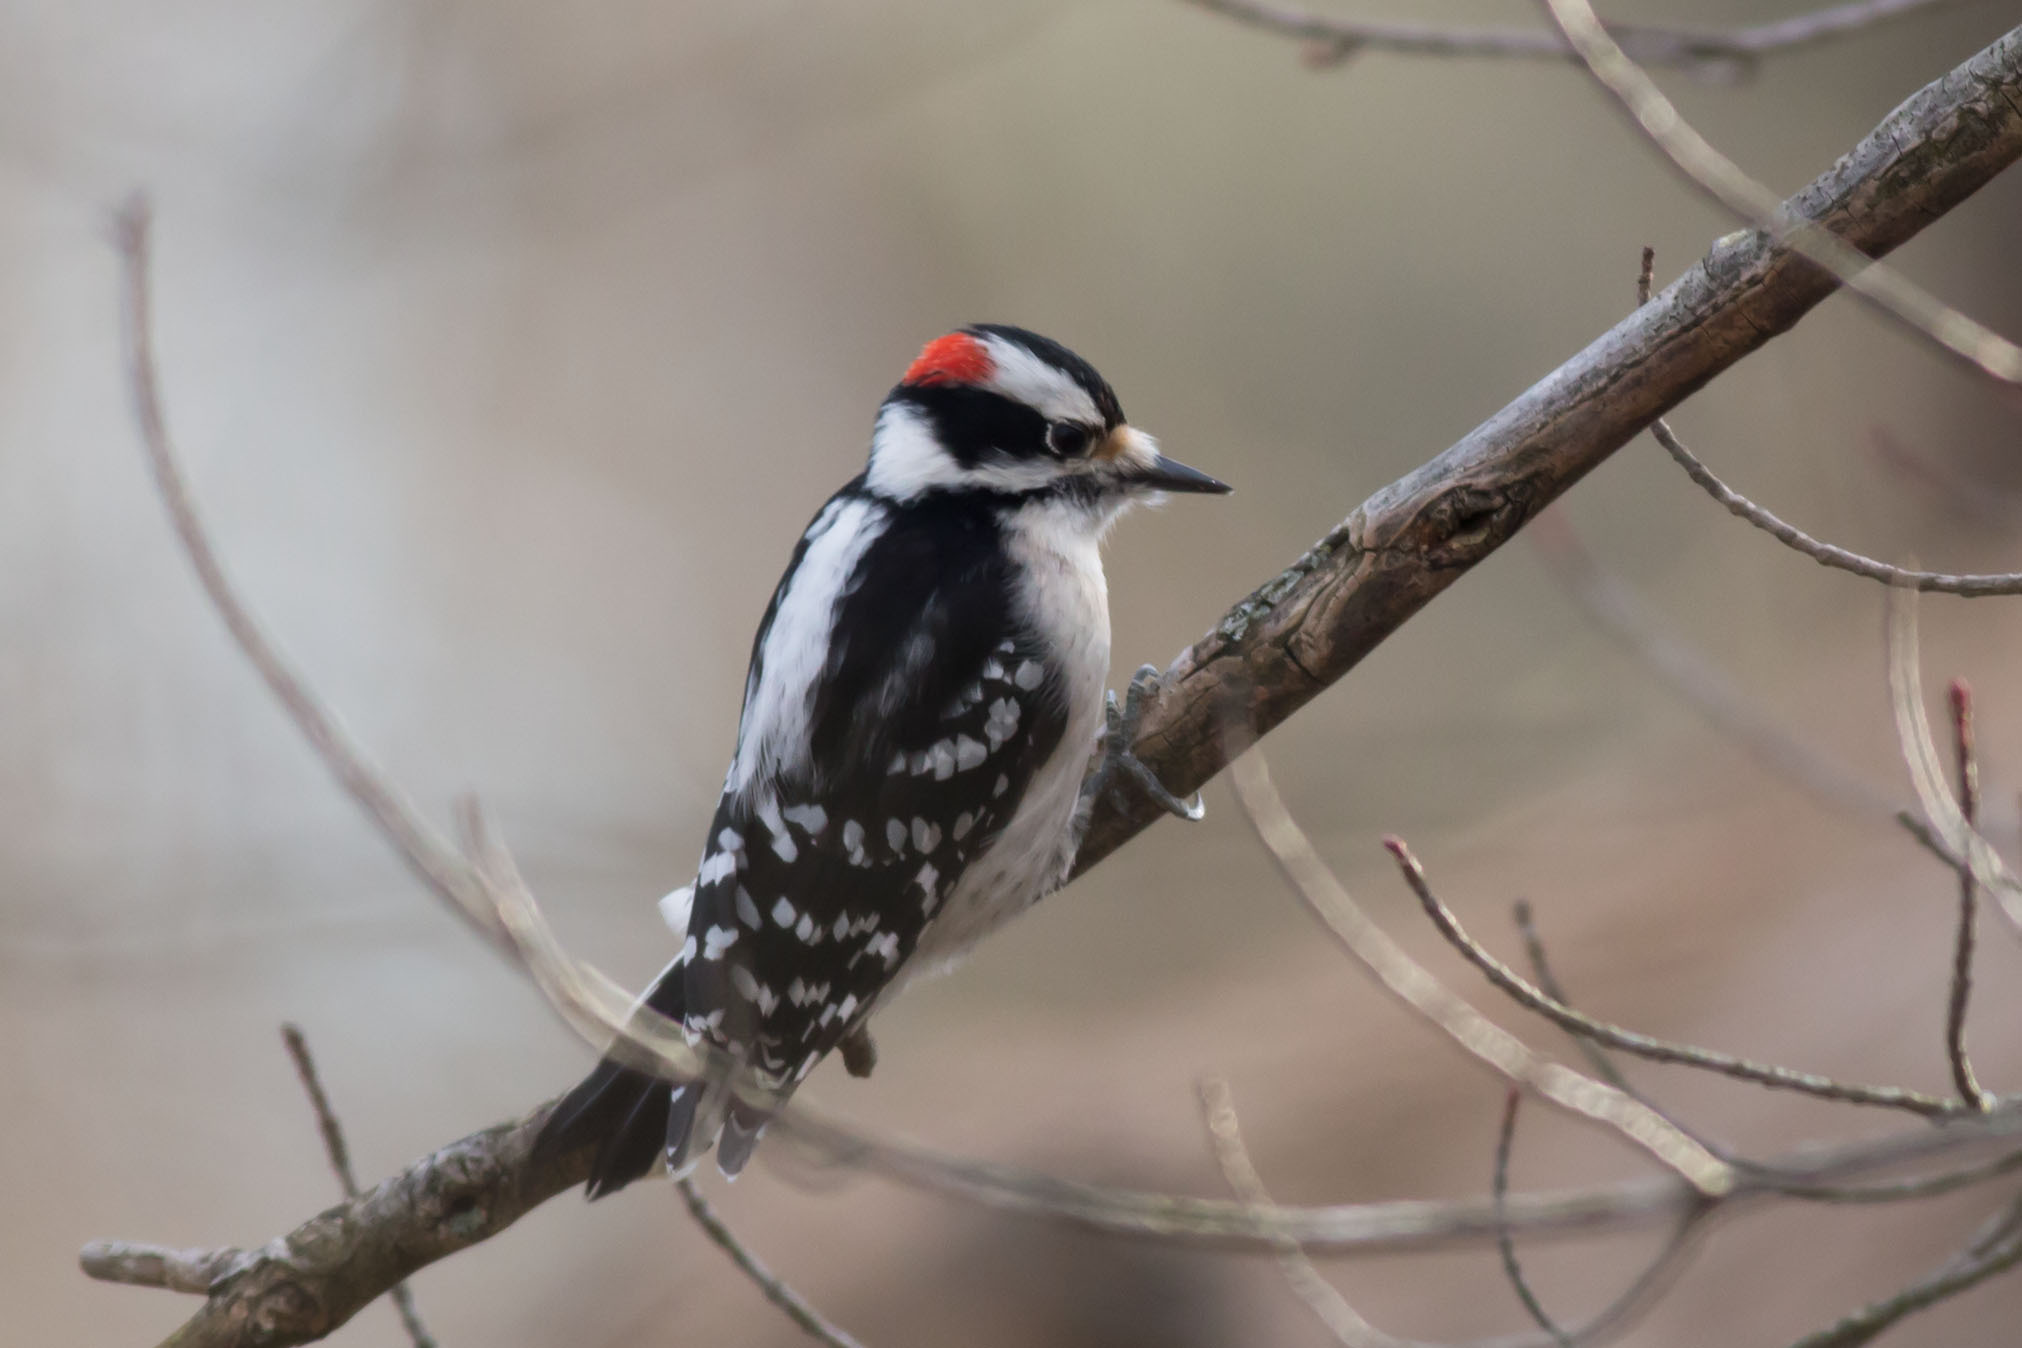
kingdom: Animalia
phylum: Chordata
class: Aves
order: Piciformes
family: Picidae
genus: Dryobates
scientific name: Dryobates pubescens
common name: Downy woodpecker
